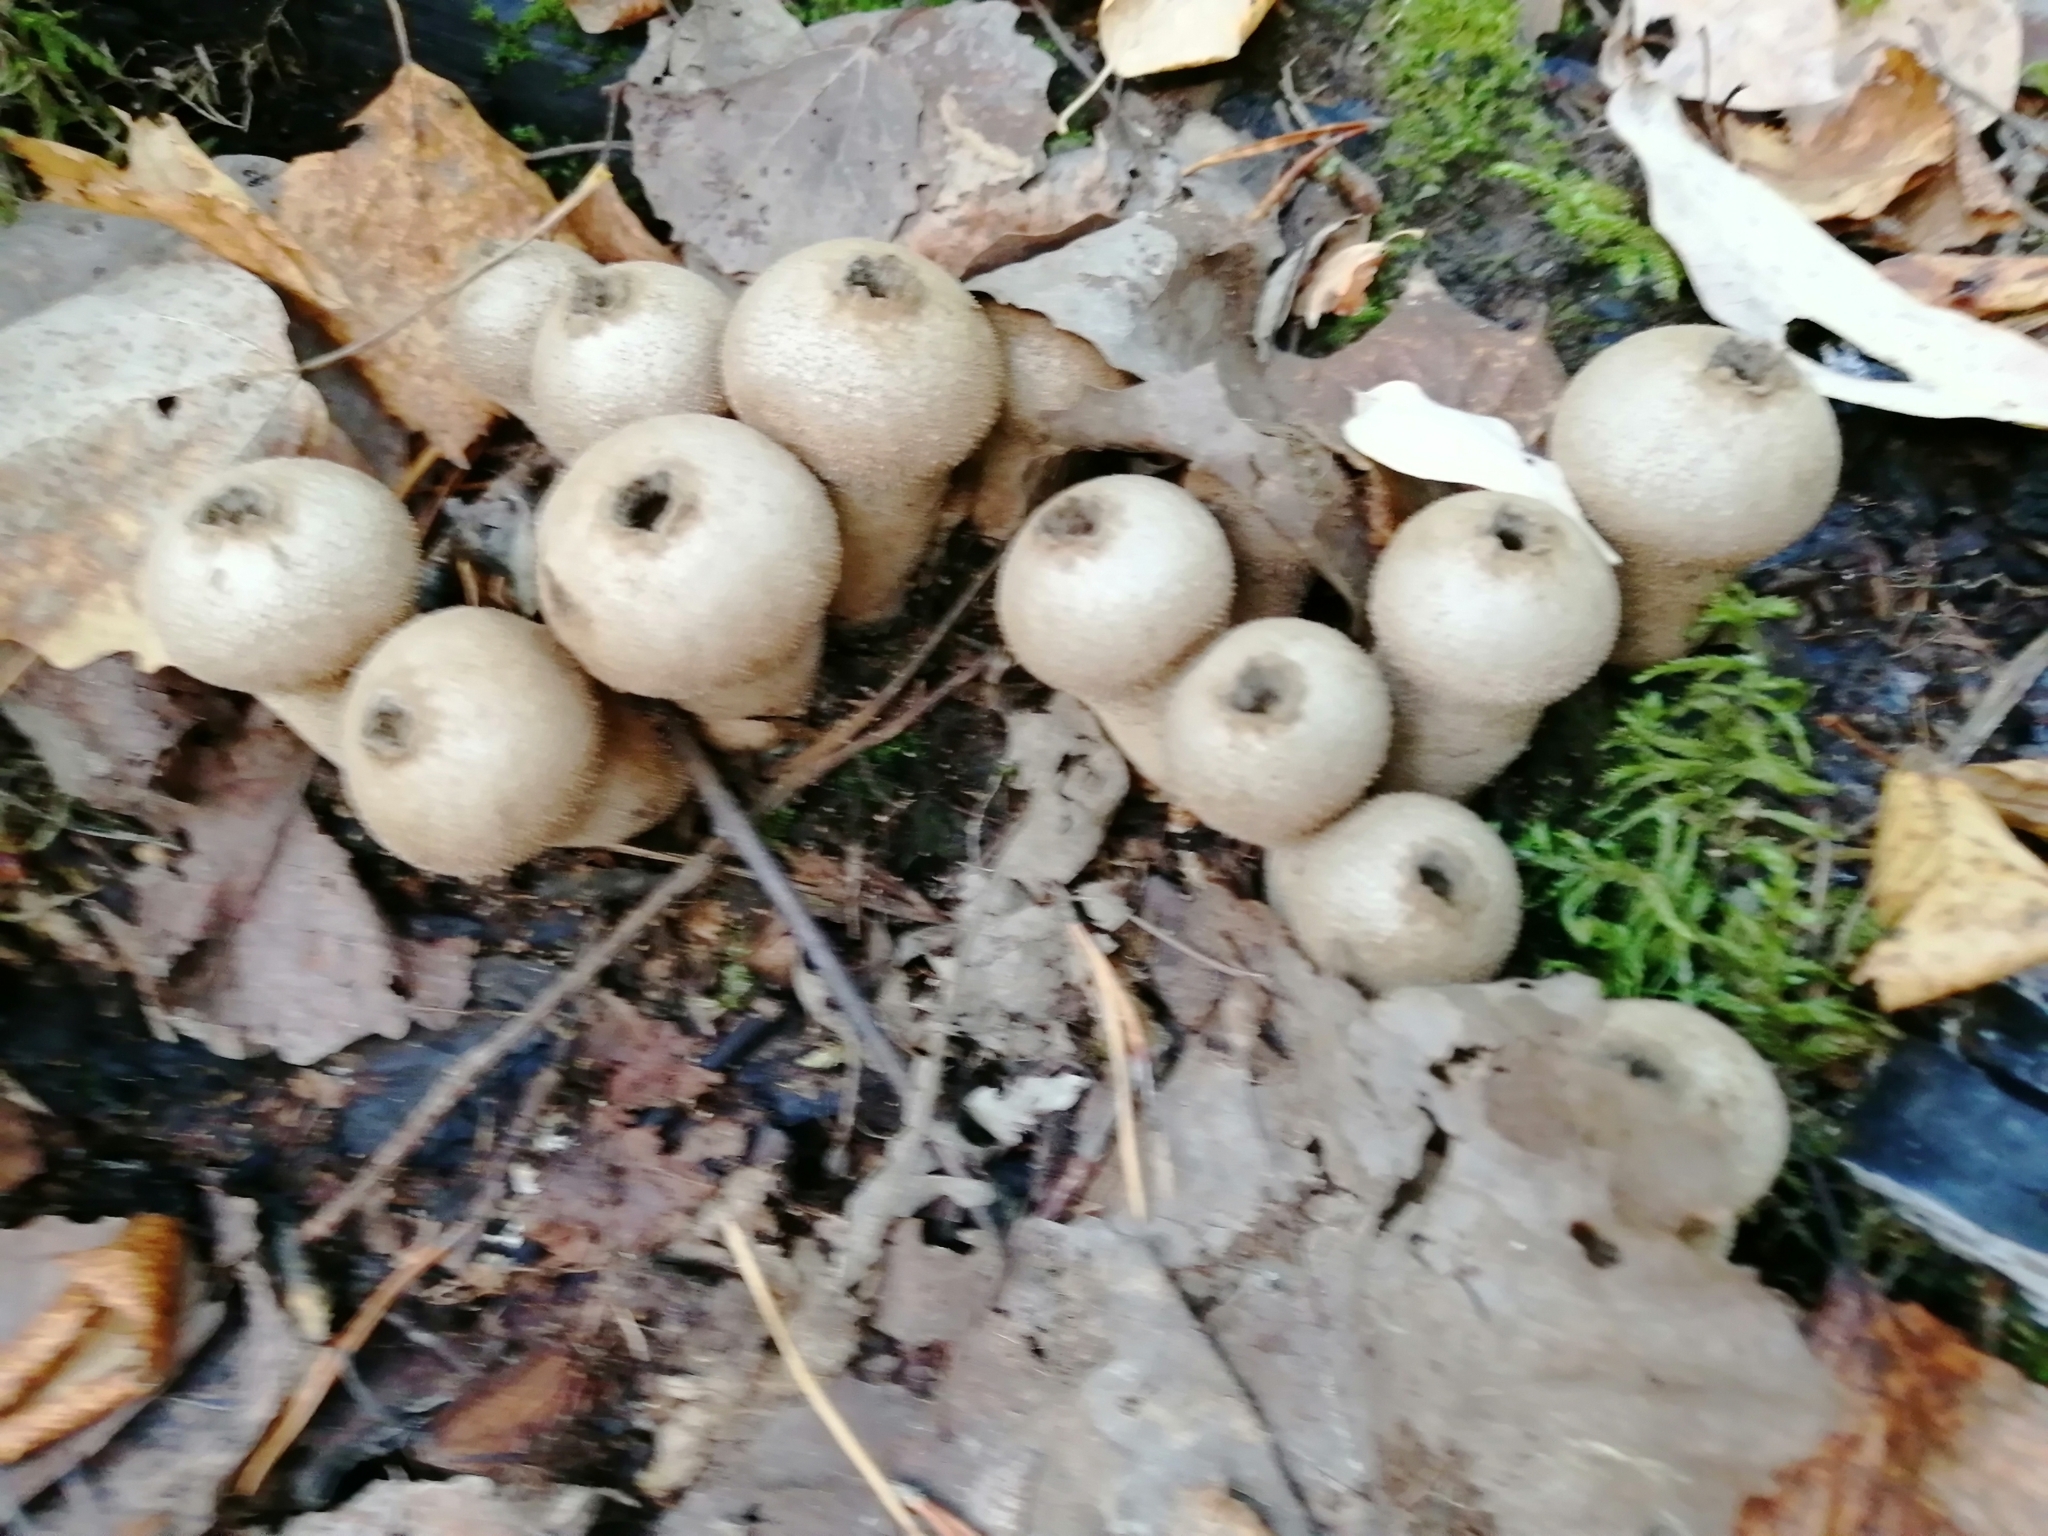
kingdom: Fungi
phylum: Basidiomycota
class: Agaricomycetes
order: Agaricales
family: Lycoperdaceae
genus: Lycoperdon
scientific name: Lycoperdon perlatum
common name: Common puffball
